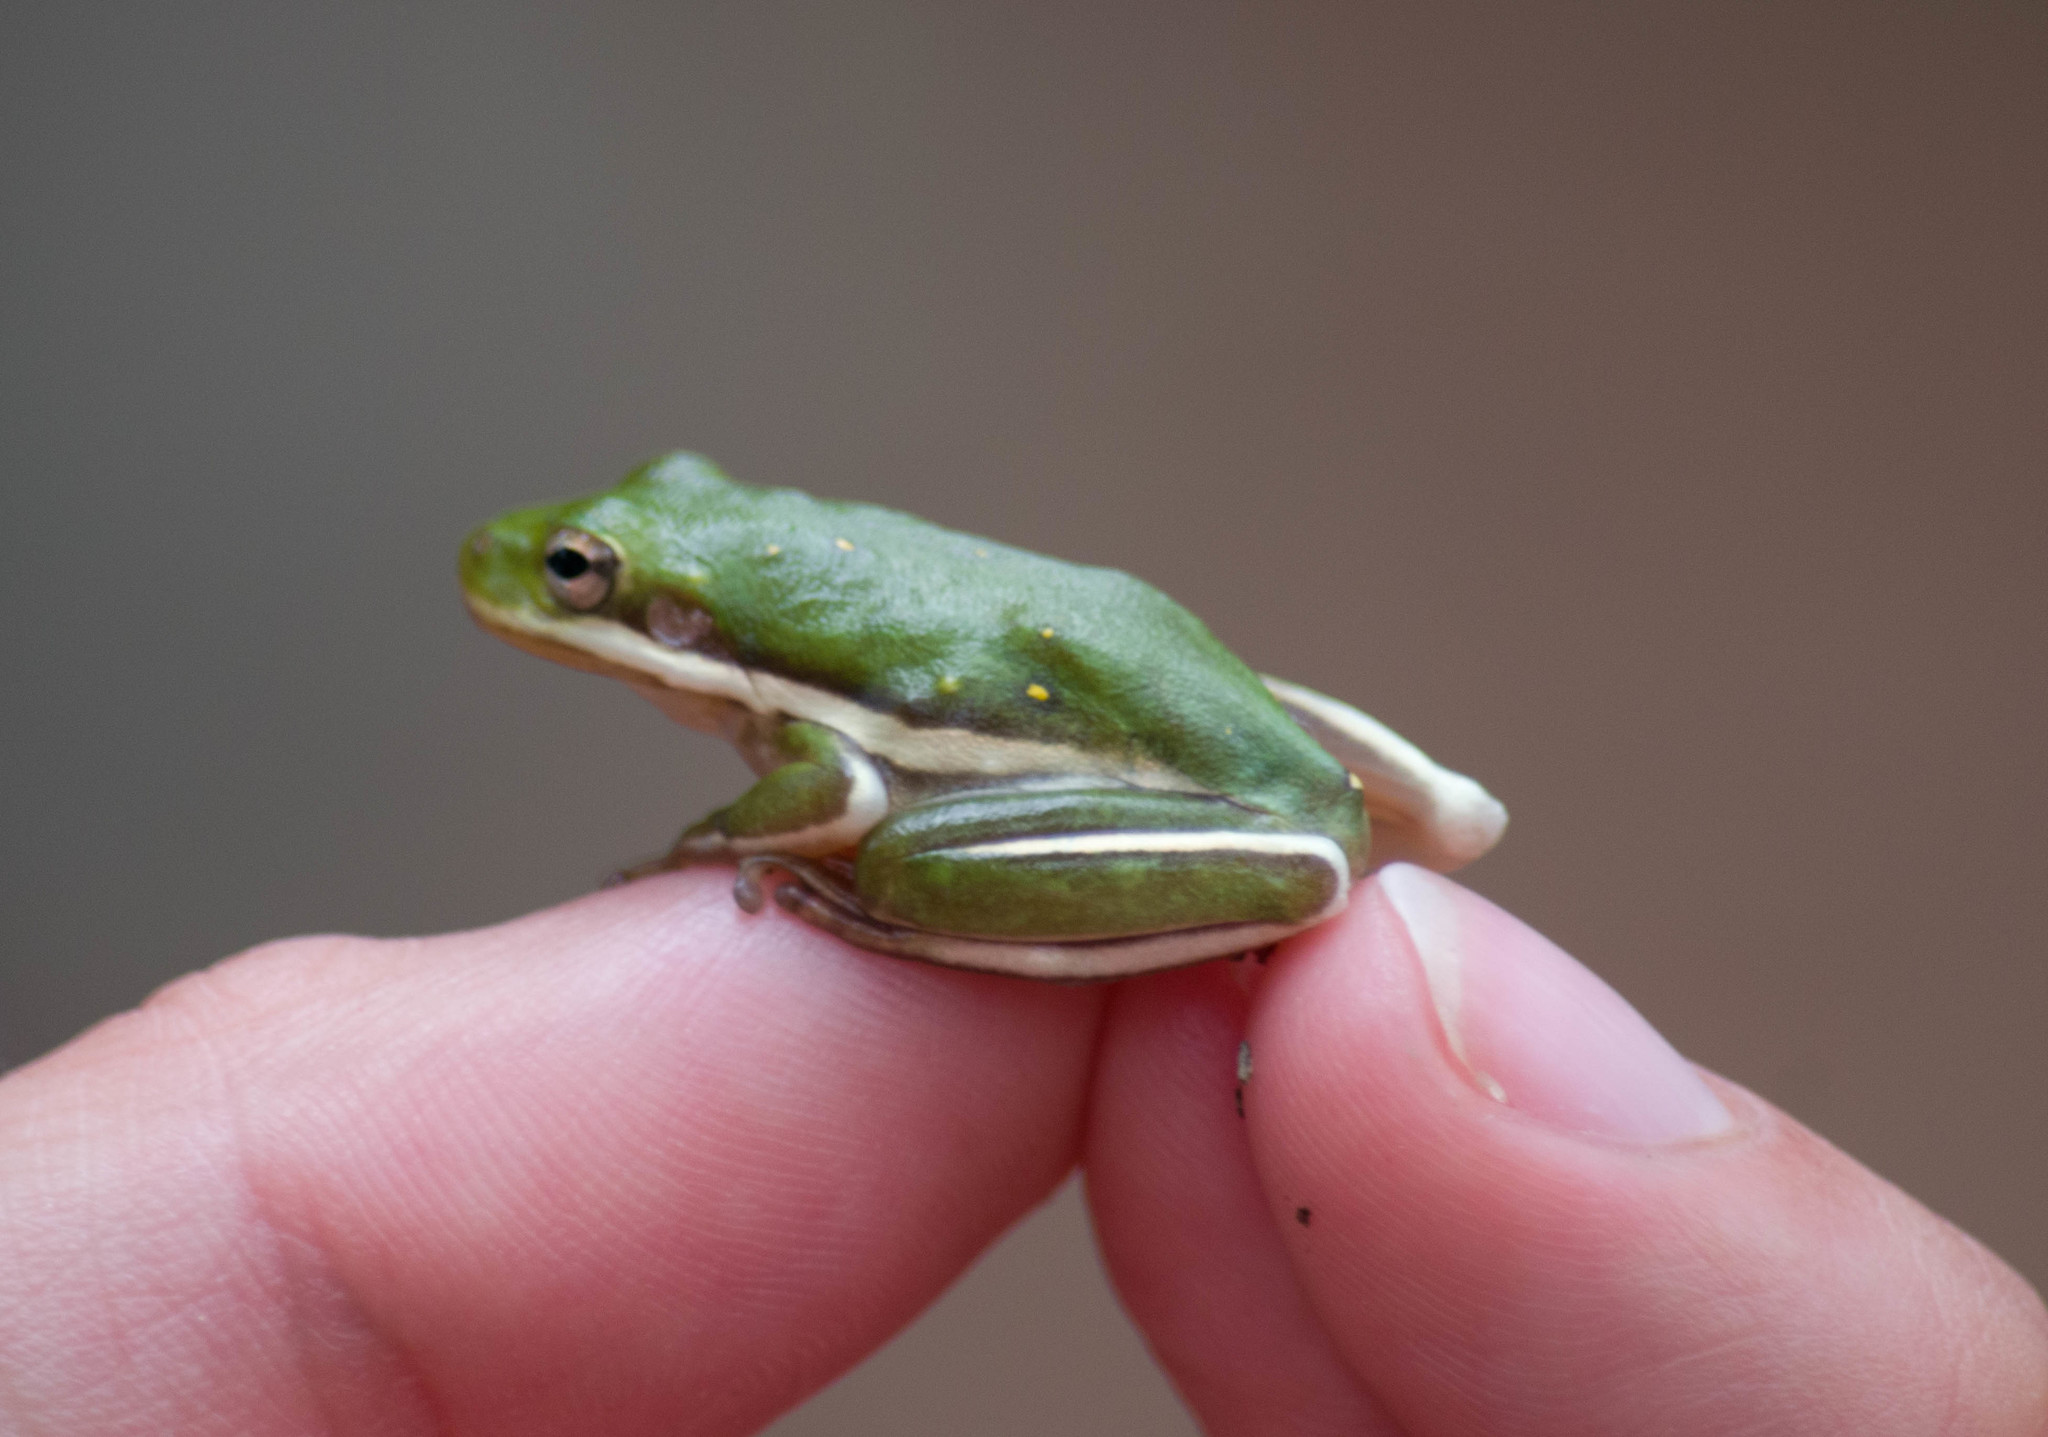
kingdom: Animalia
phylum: Chordata
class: Amphibia
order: Anura
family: Hylidae
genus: Dryophytes
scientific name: Dryophytes cinereus
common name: Green treefrog
